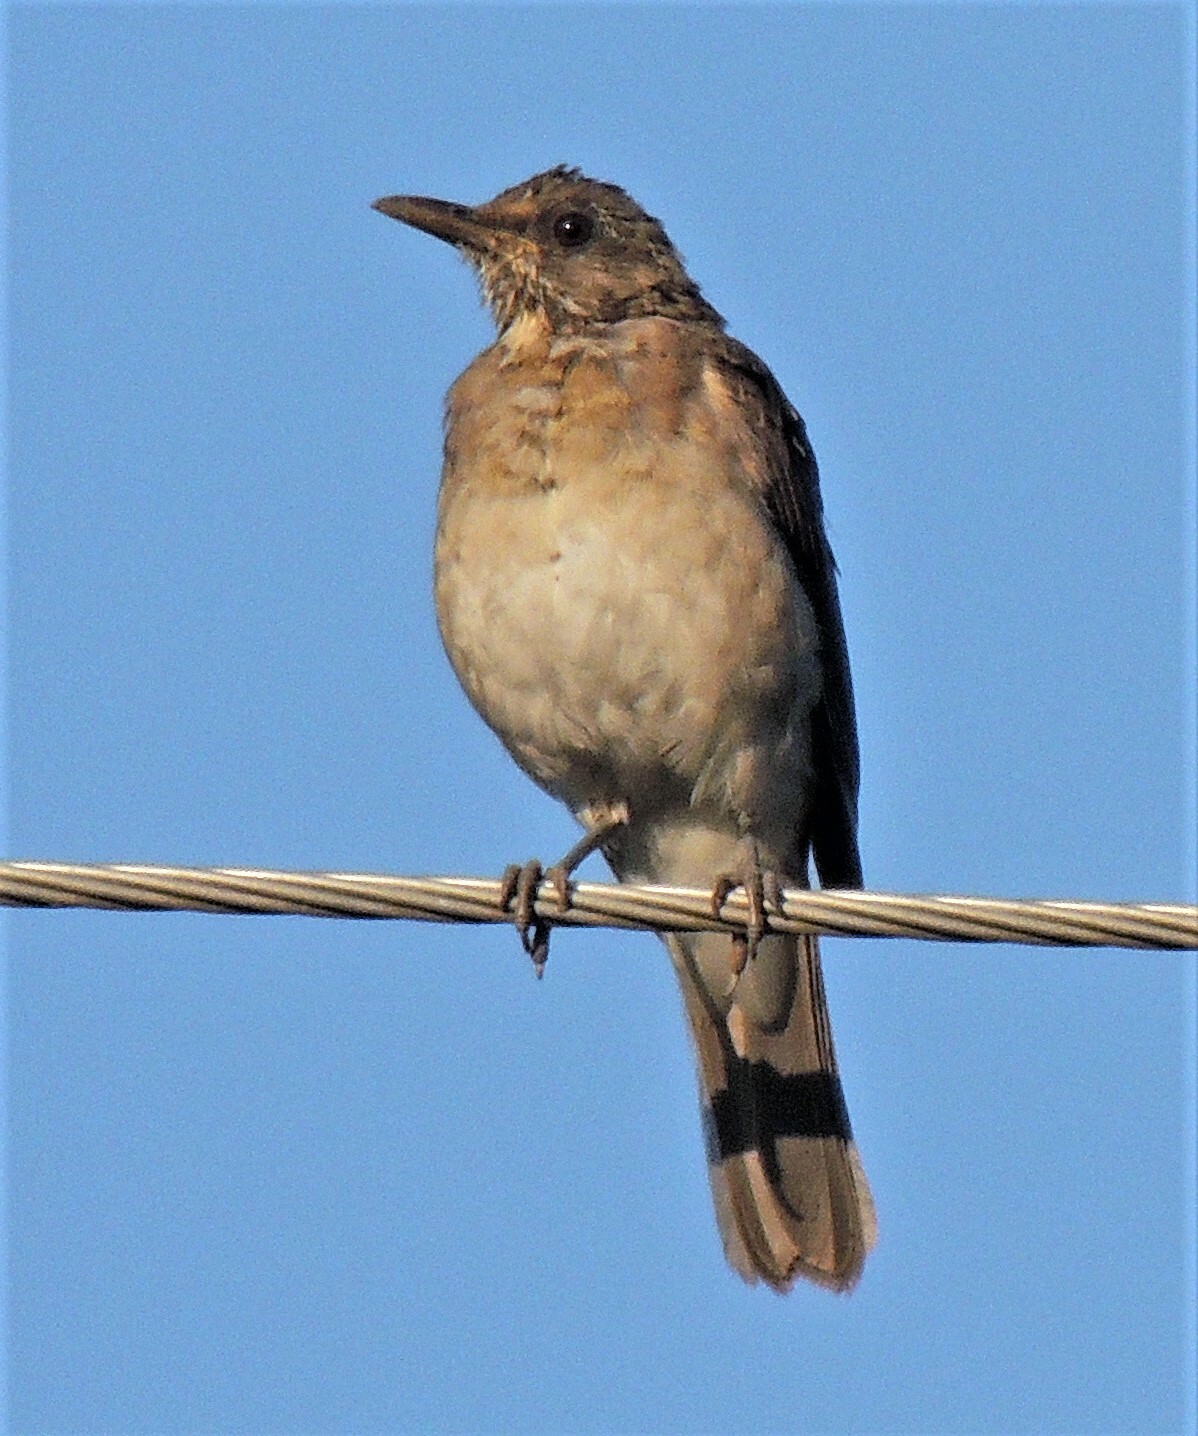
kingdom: Animalia
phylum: Chordata
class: Aves
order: Passeriformes
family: Turdidae
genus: Turdus
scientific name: Turdus amaurochalinus
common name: Creamy-bellied thrush
